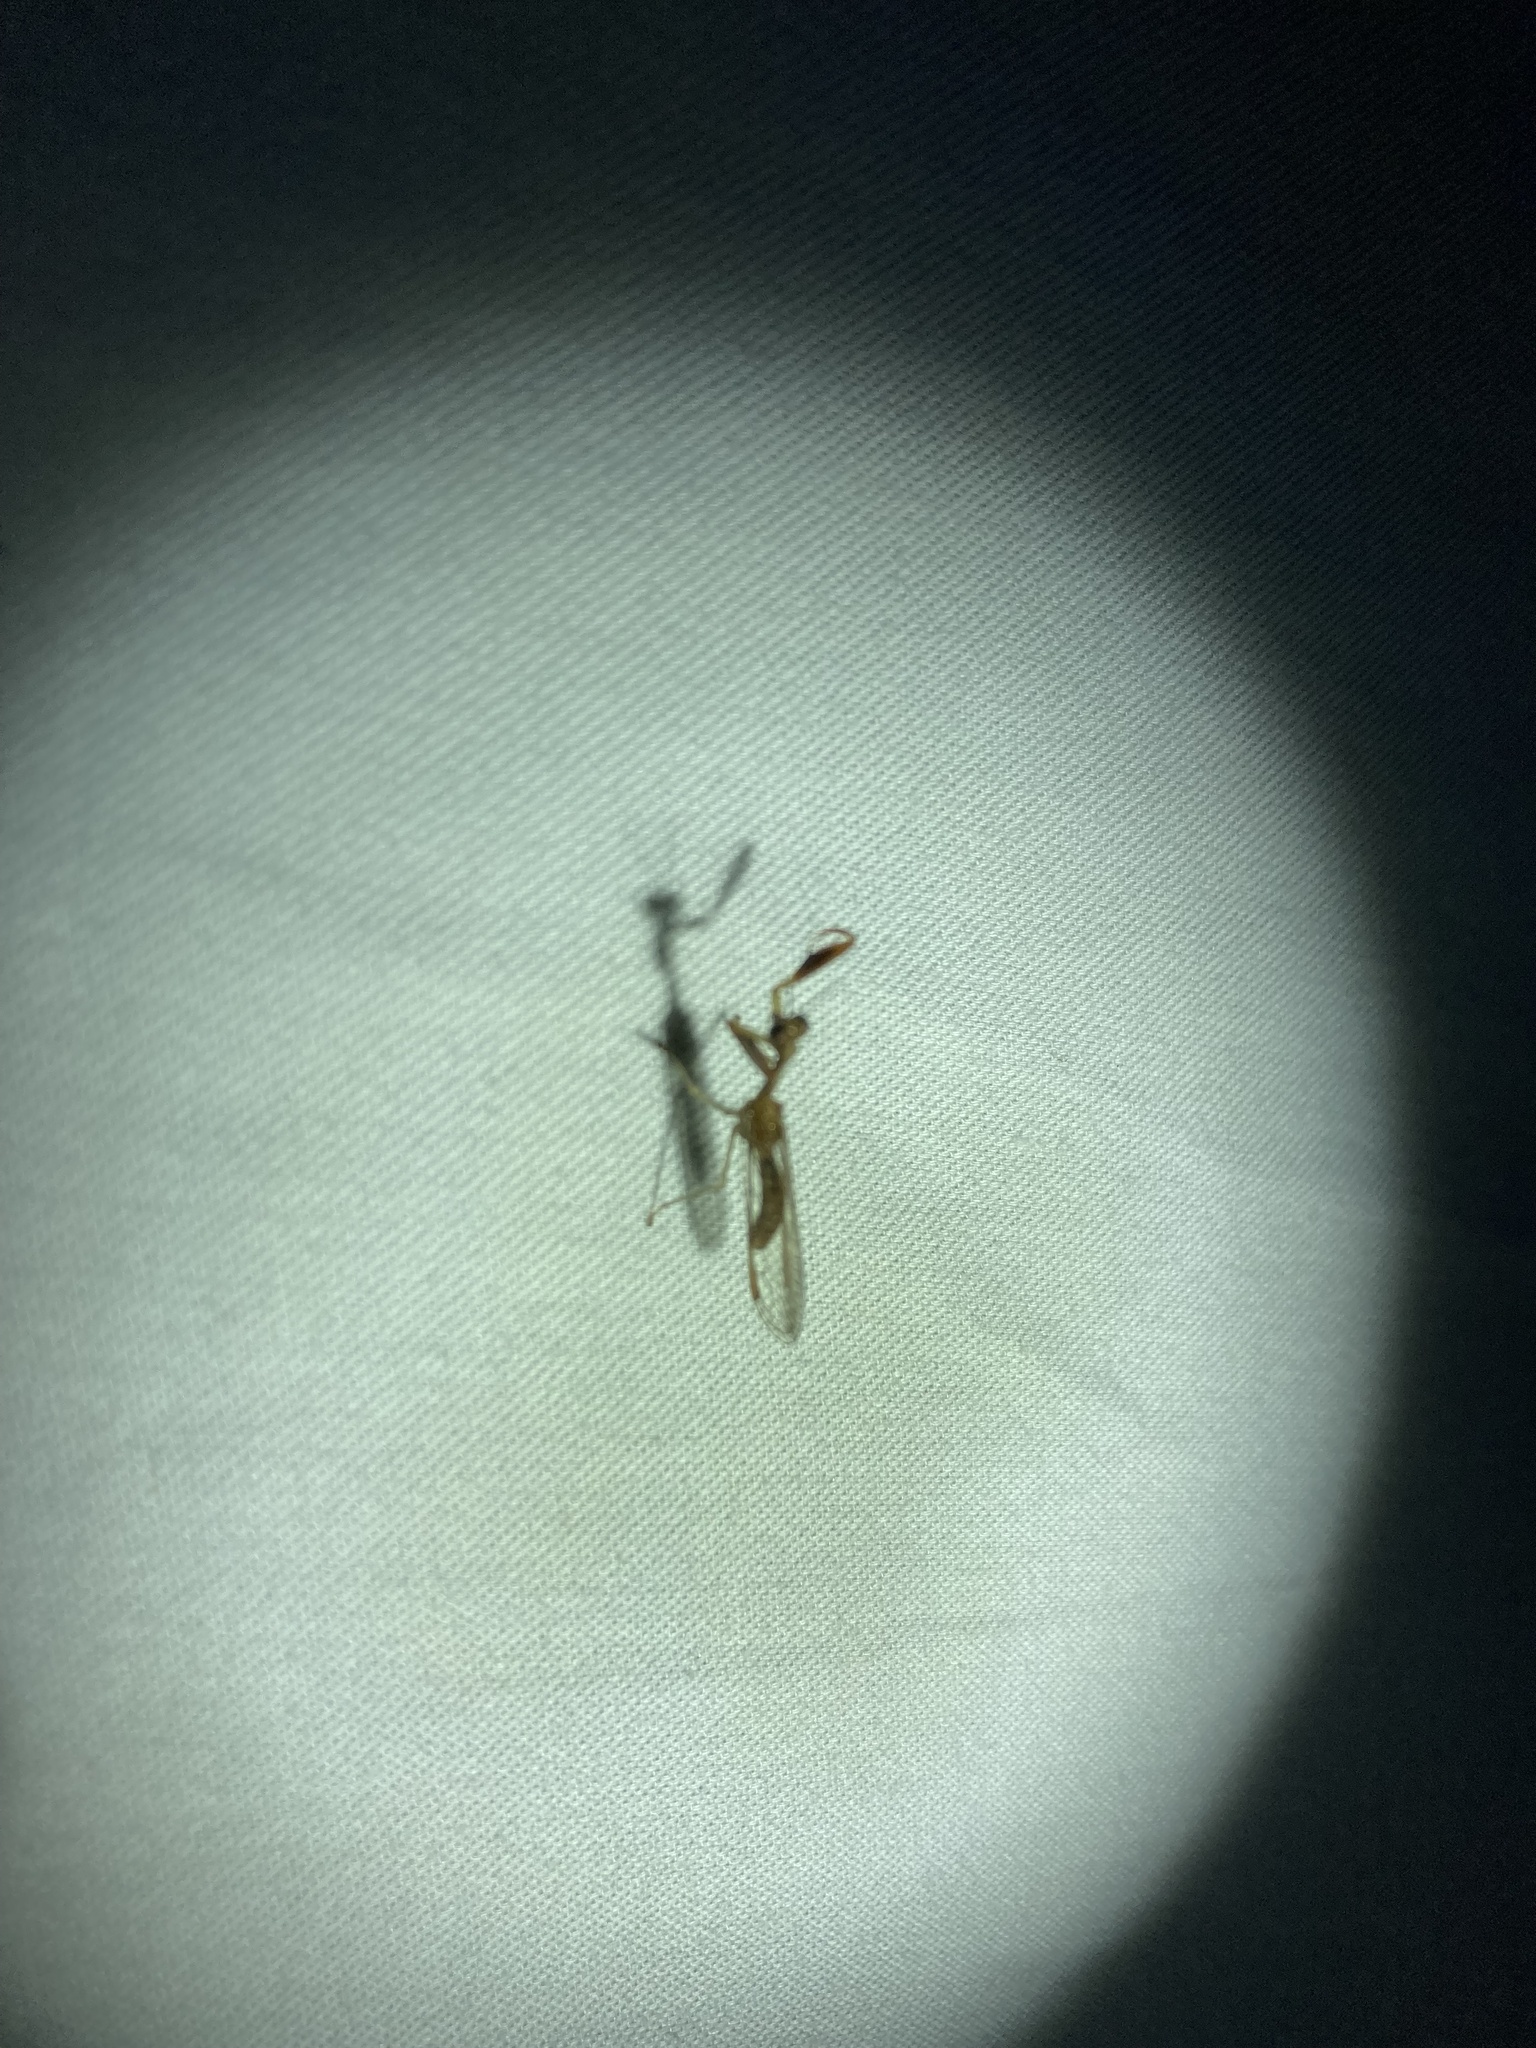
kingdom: Animalia
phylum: Arthropoda
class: Insecta
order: Neuroptera
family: Mantispidae
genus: Leptomantispa
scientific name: Leptomantispa pulchella
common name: Stevens's mantidfly
